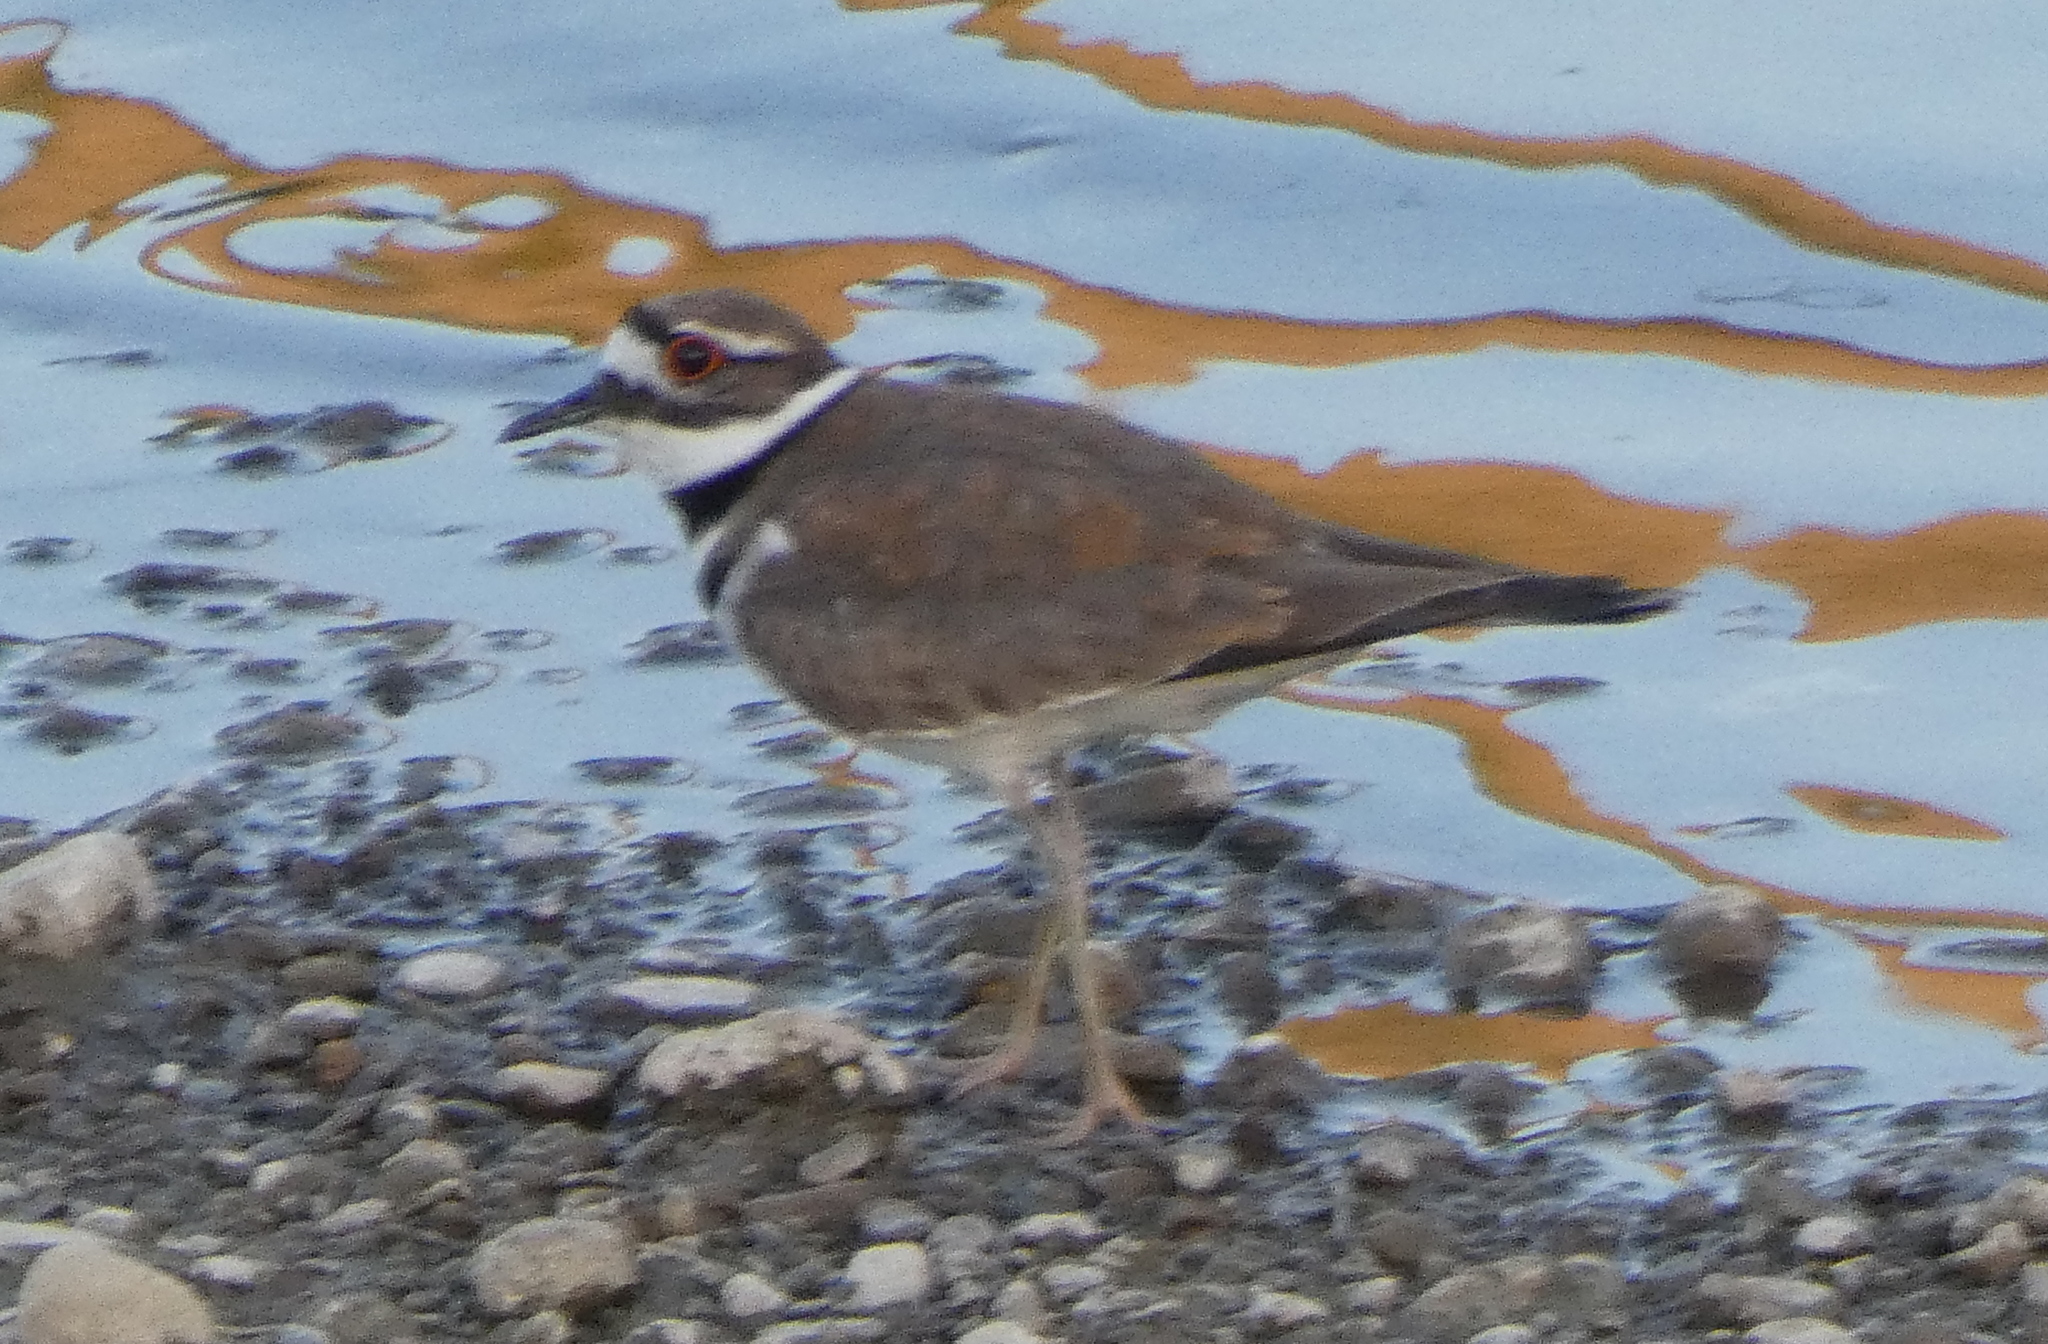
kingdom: Animalia
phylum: Chordata
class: Aves
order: Charadriiformes
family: Charadriidae
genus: Charadrius
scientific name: Charadrius vociferus
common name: Killdeer
